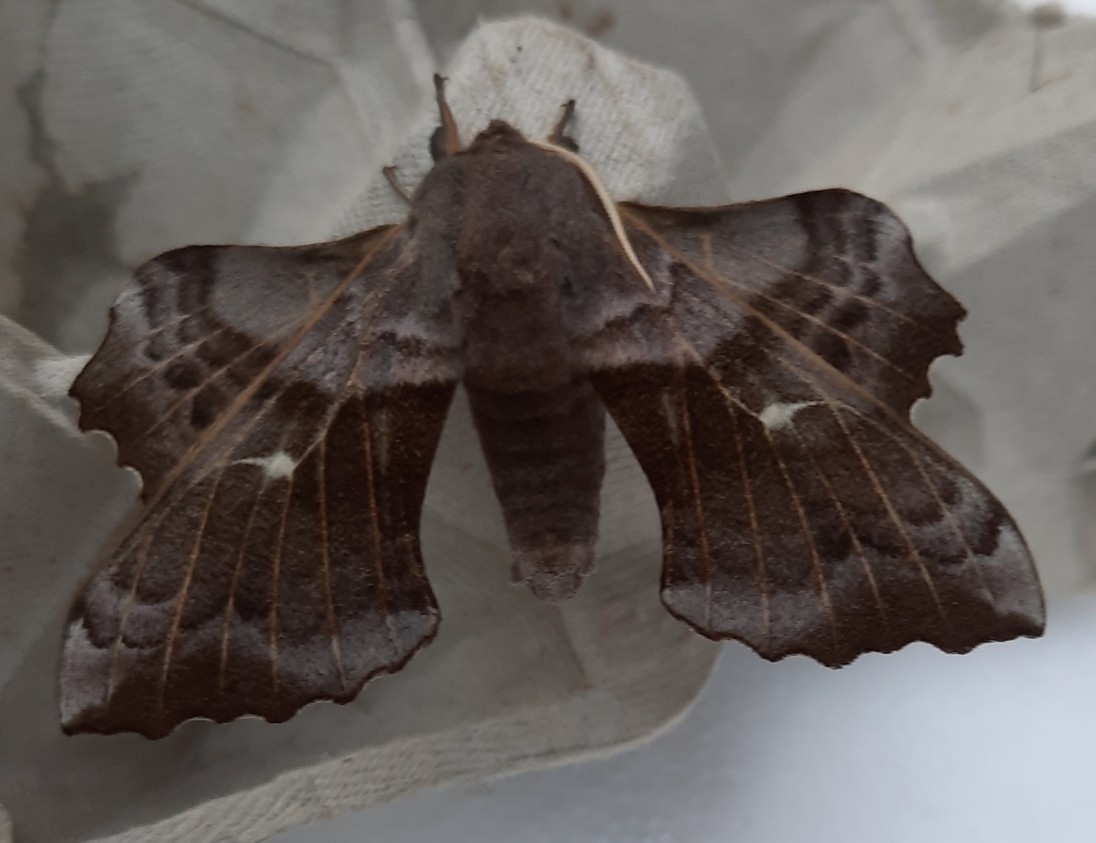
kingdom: Animalia
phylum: Arthropoda
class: Insecta
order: Lepidoptera
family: Sphingidae
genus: Laothoe
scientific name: Laothoe populi
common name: Poplar hawk-moth
